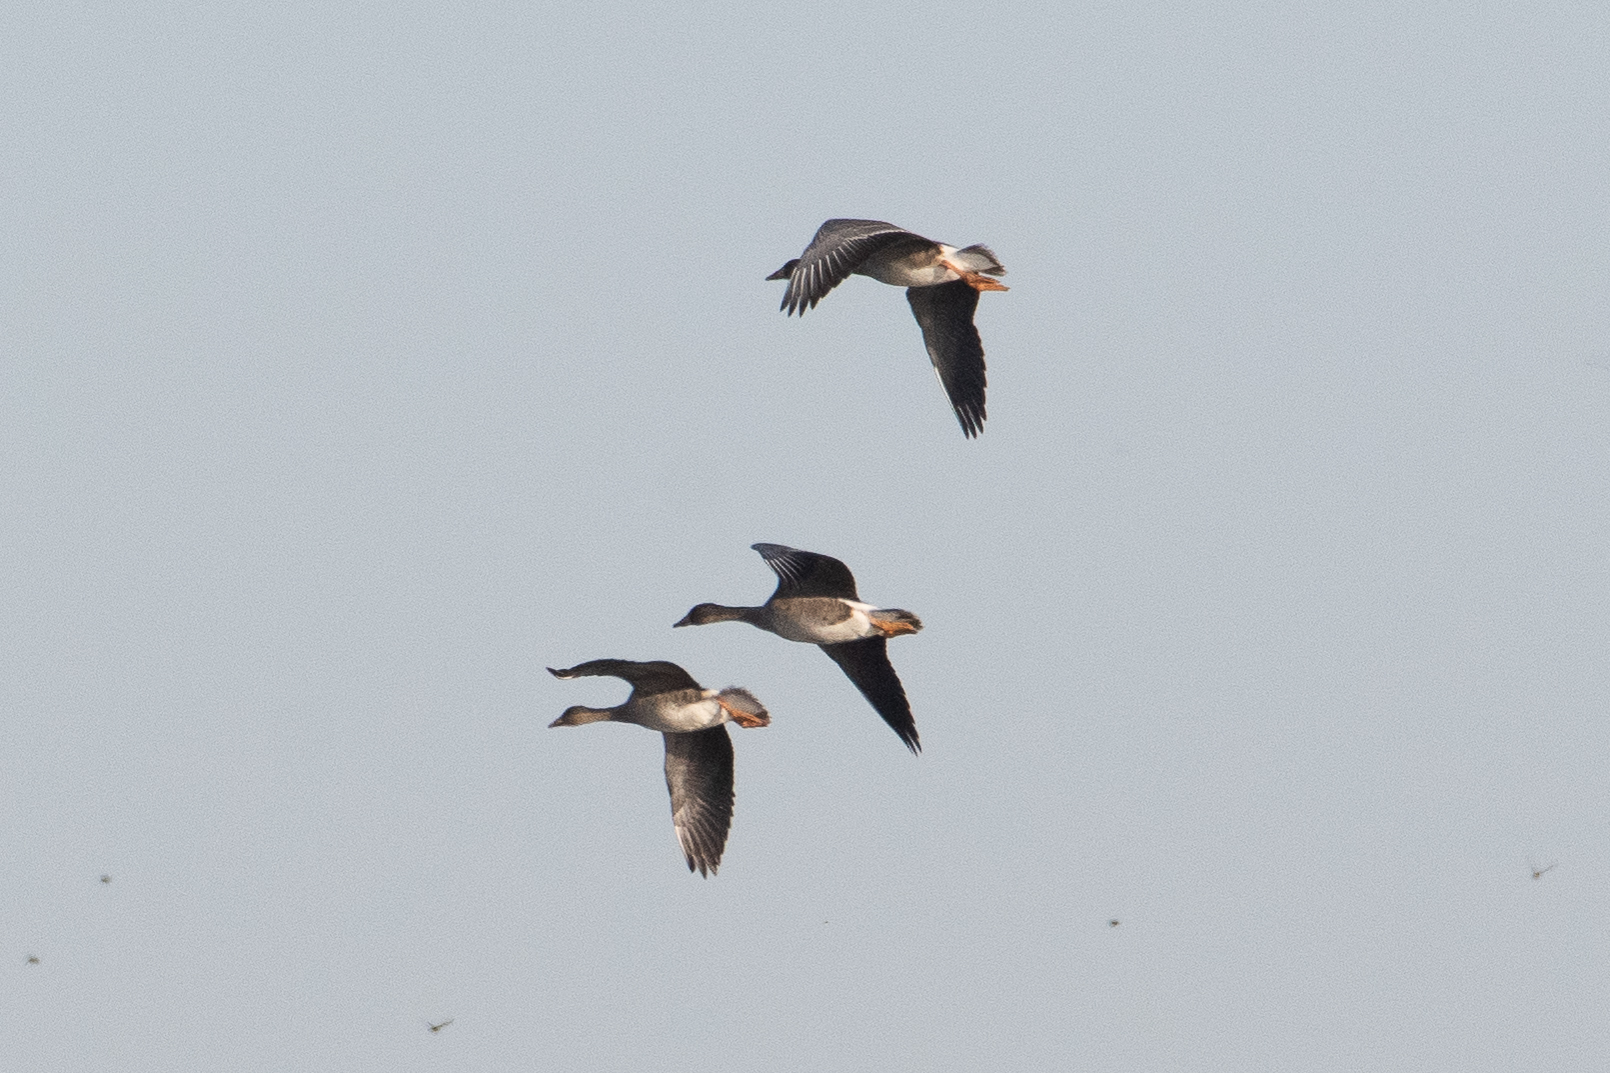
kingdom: Animalia
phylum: Chordata
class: Aves
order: Anseriformes
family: Anatidae
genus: Anser
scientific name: Anser albifrons
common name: Greater white-fronted goose
